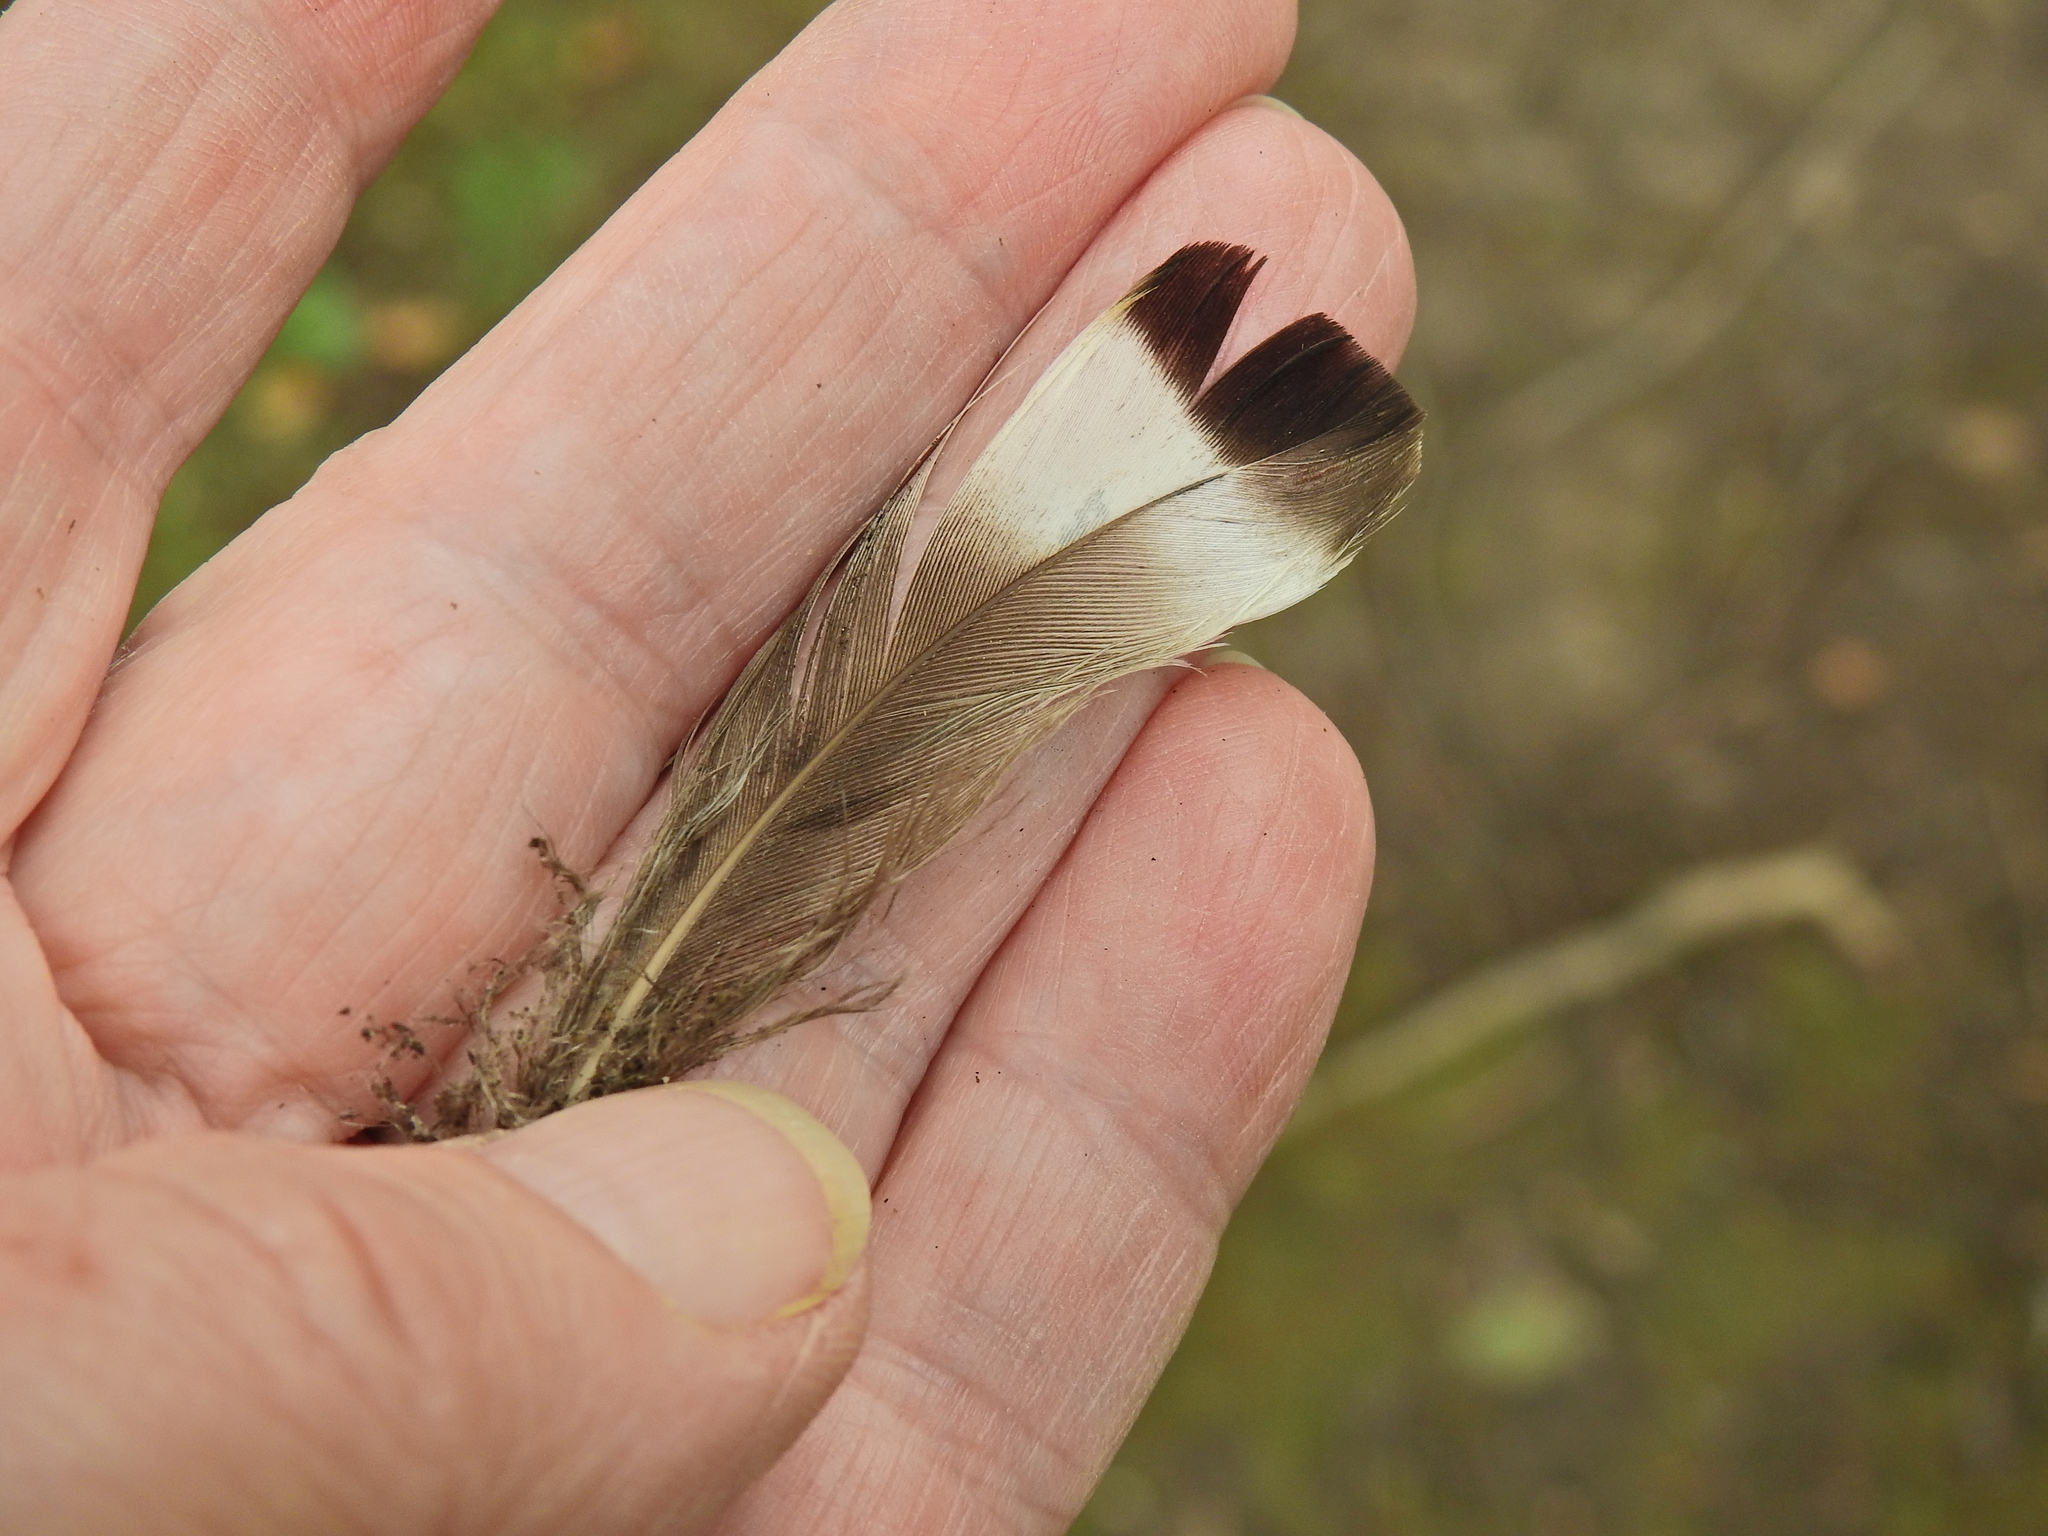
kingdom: Animalia
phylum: Chordata
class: Aves
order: Anseriformes
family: Anatidae
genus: Anas
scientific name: Anas platyrhynchos
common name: Mallard
